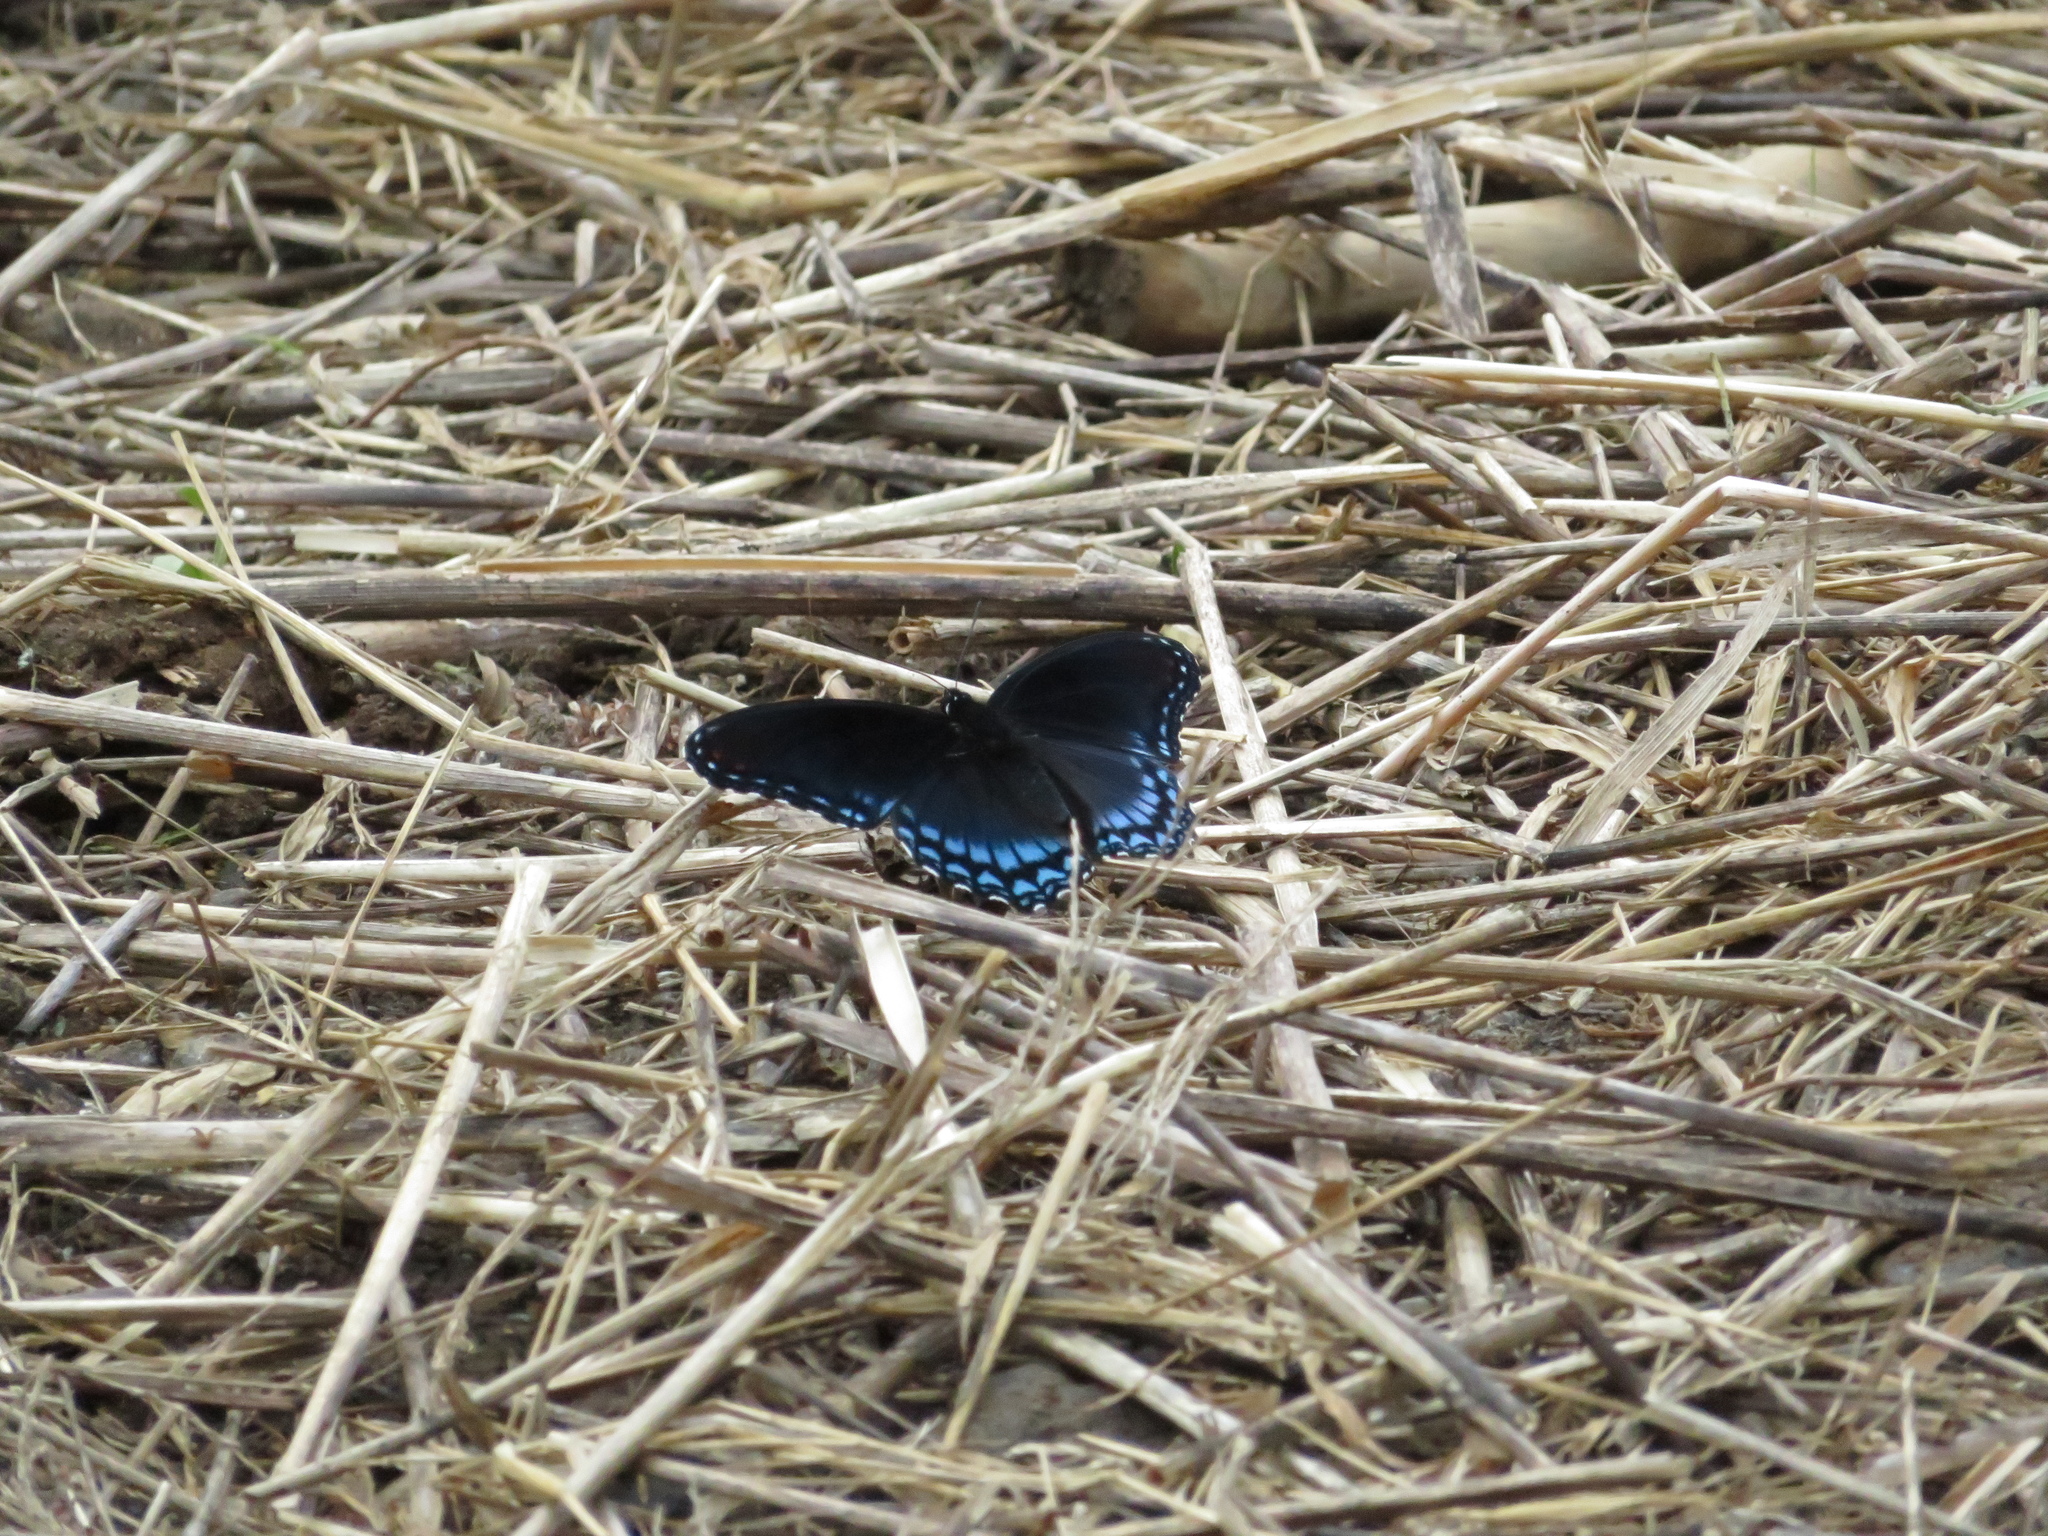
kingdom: Animalia
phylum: Arthropoda
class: Insecta
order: Lepidoptera
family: Nymphalidae
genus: Limenitis
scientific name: Limenitis astyanax
